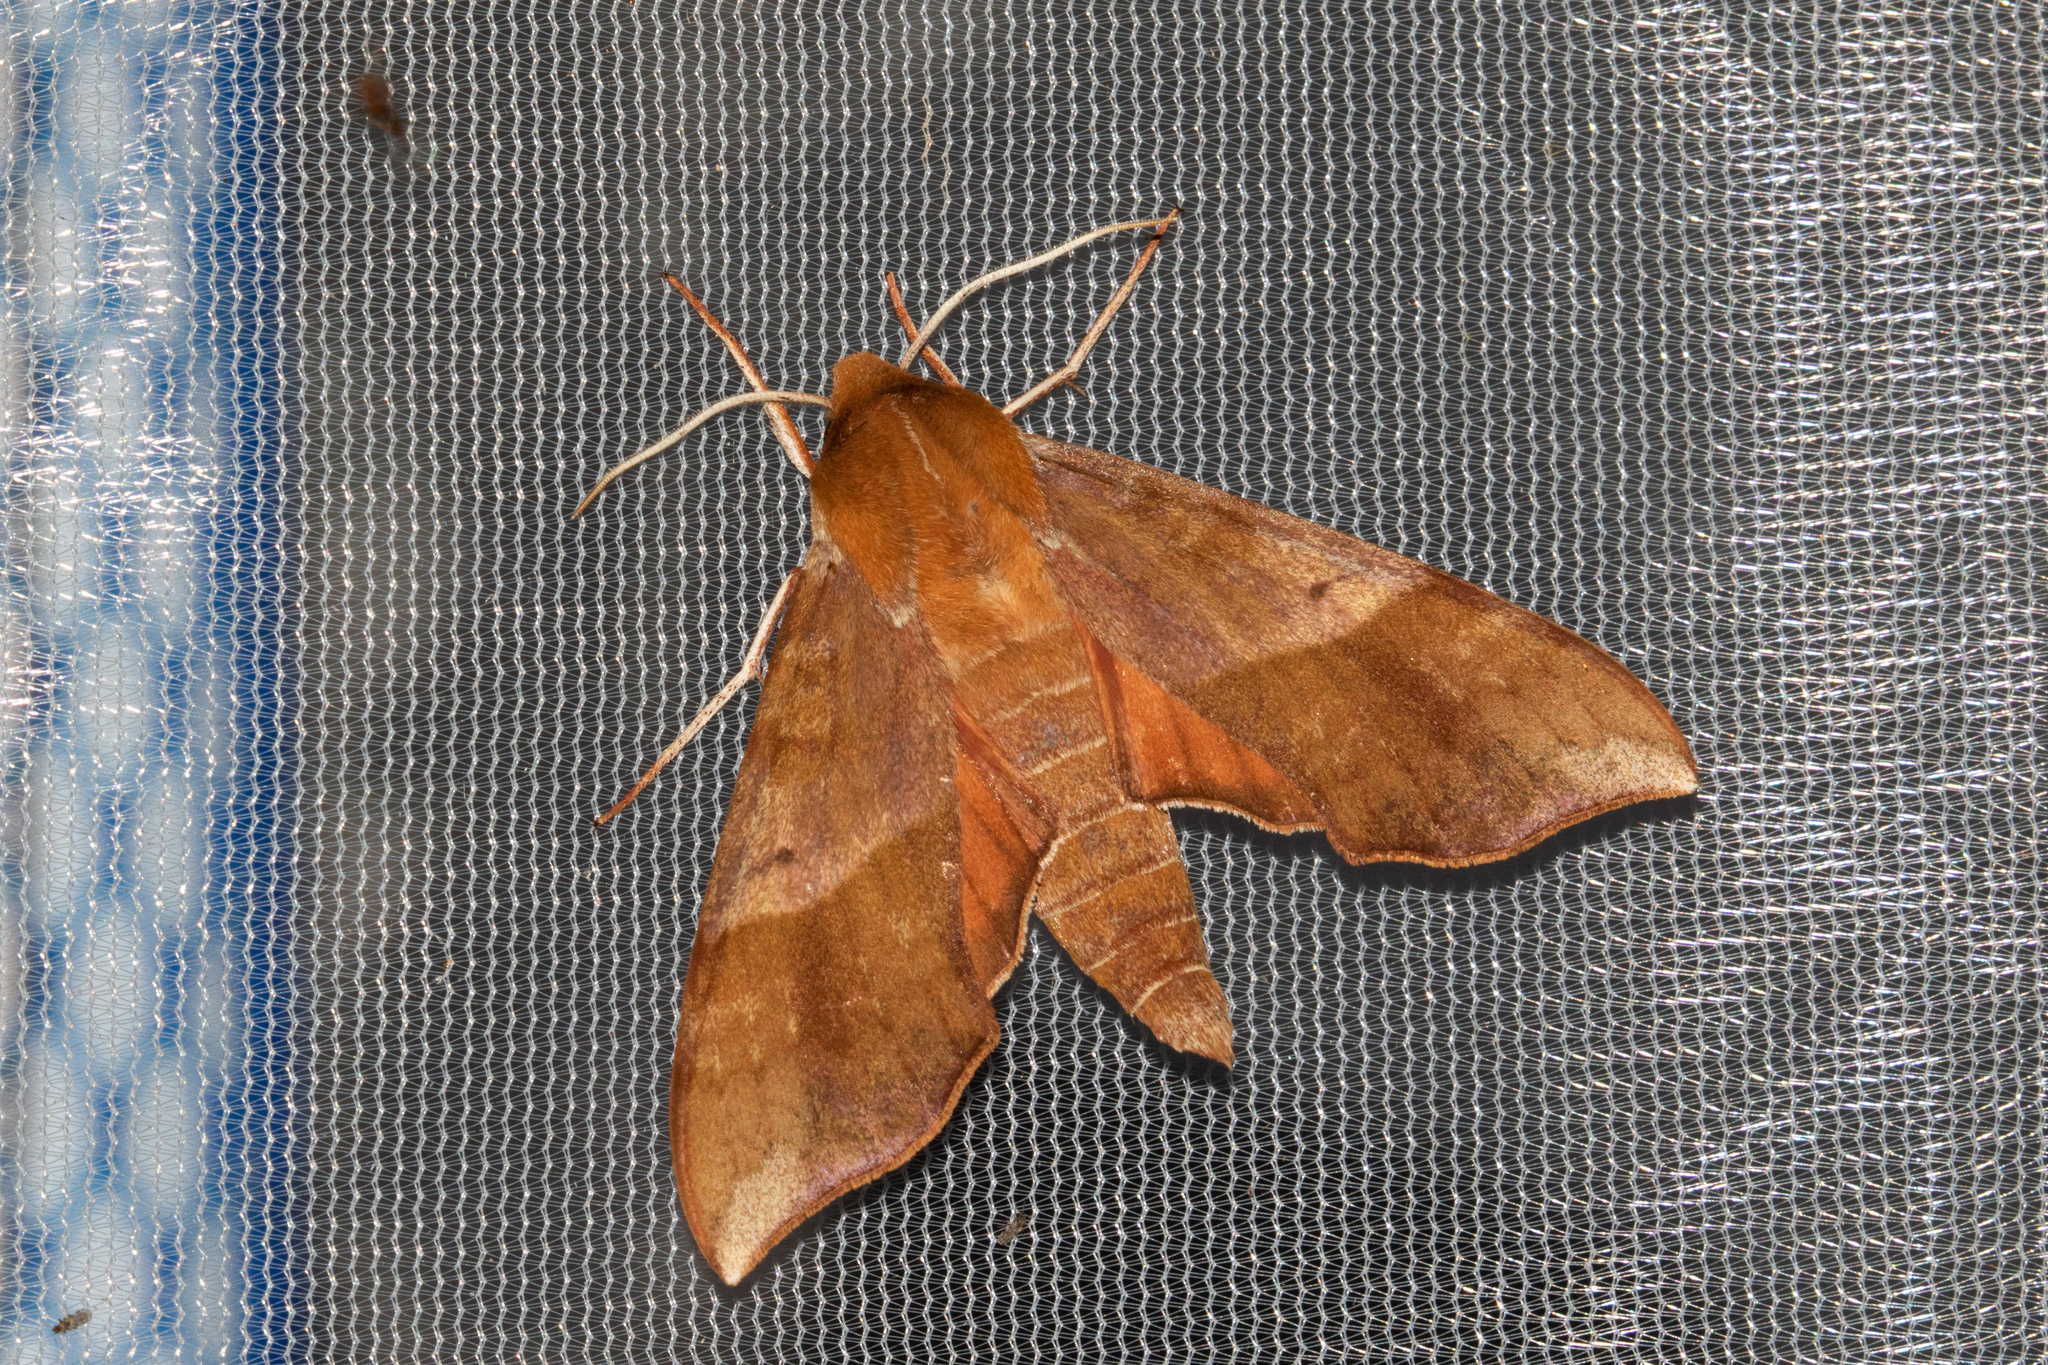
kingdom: Animalia
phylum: Arthropoda
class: Insecta
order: Lepidoptera
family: Sphingidae
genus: Darapsa
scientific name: Darapsa choerilus
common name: Azalea sphinx
